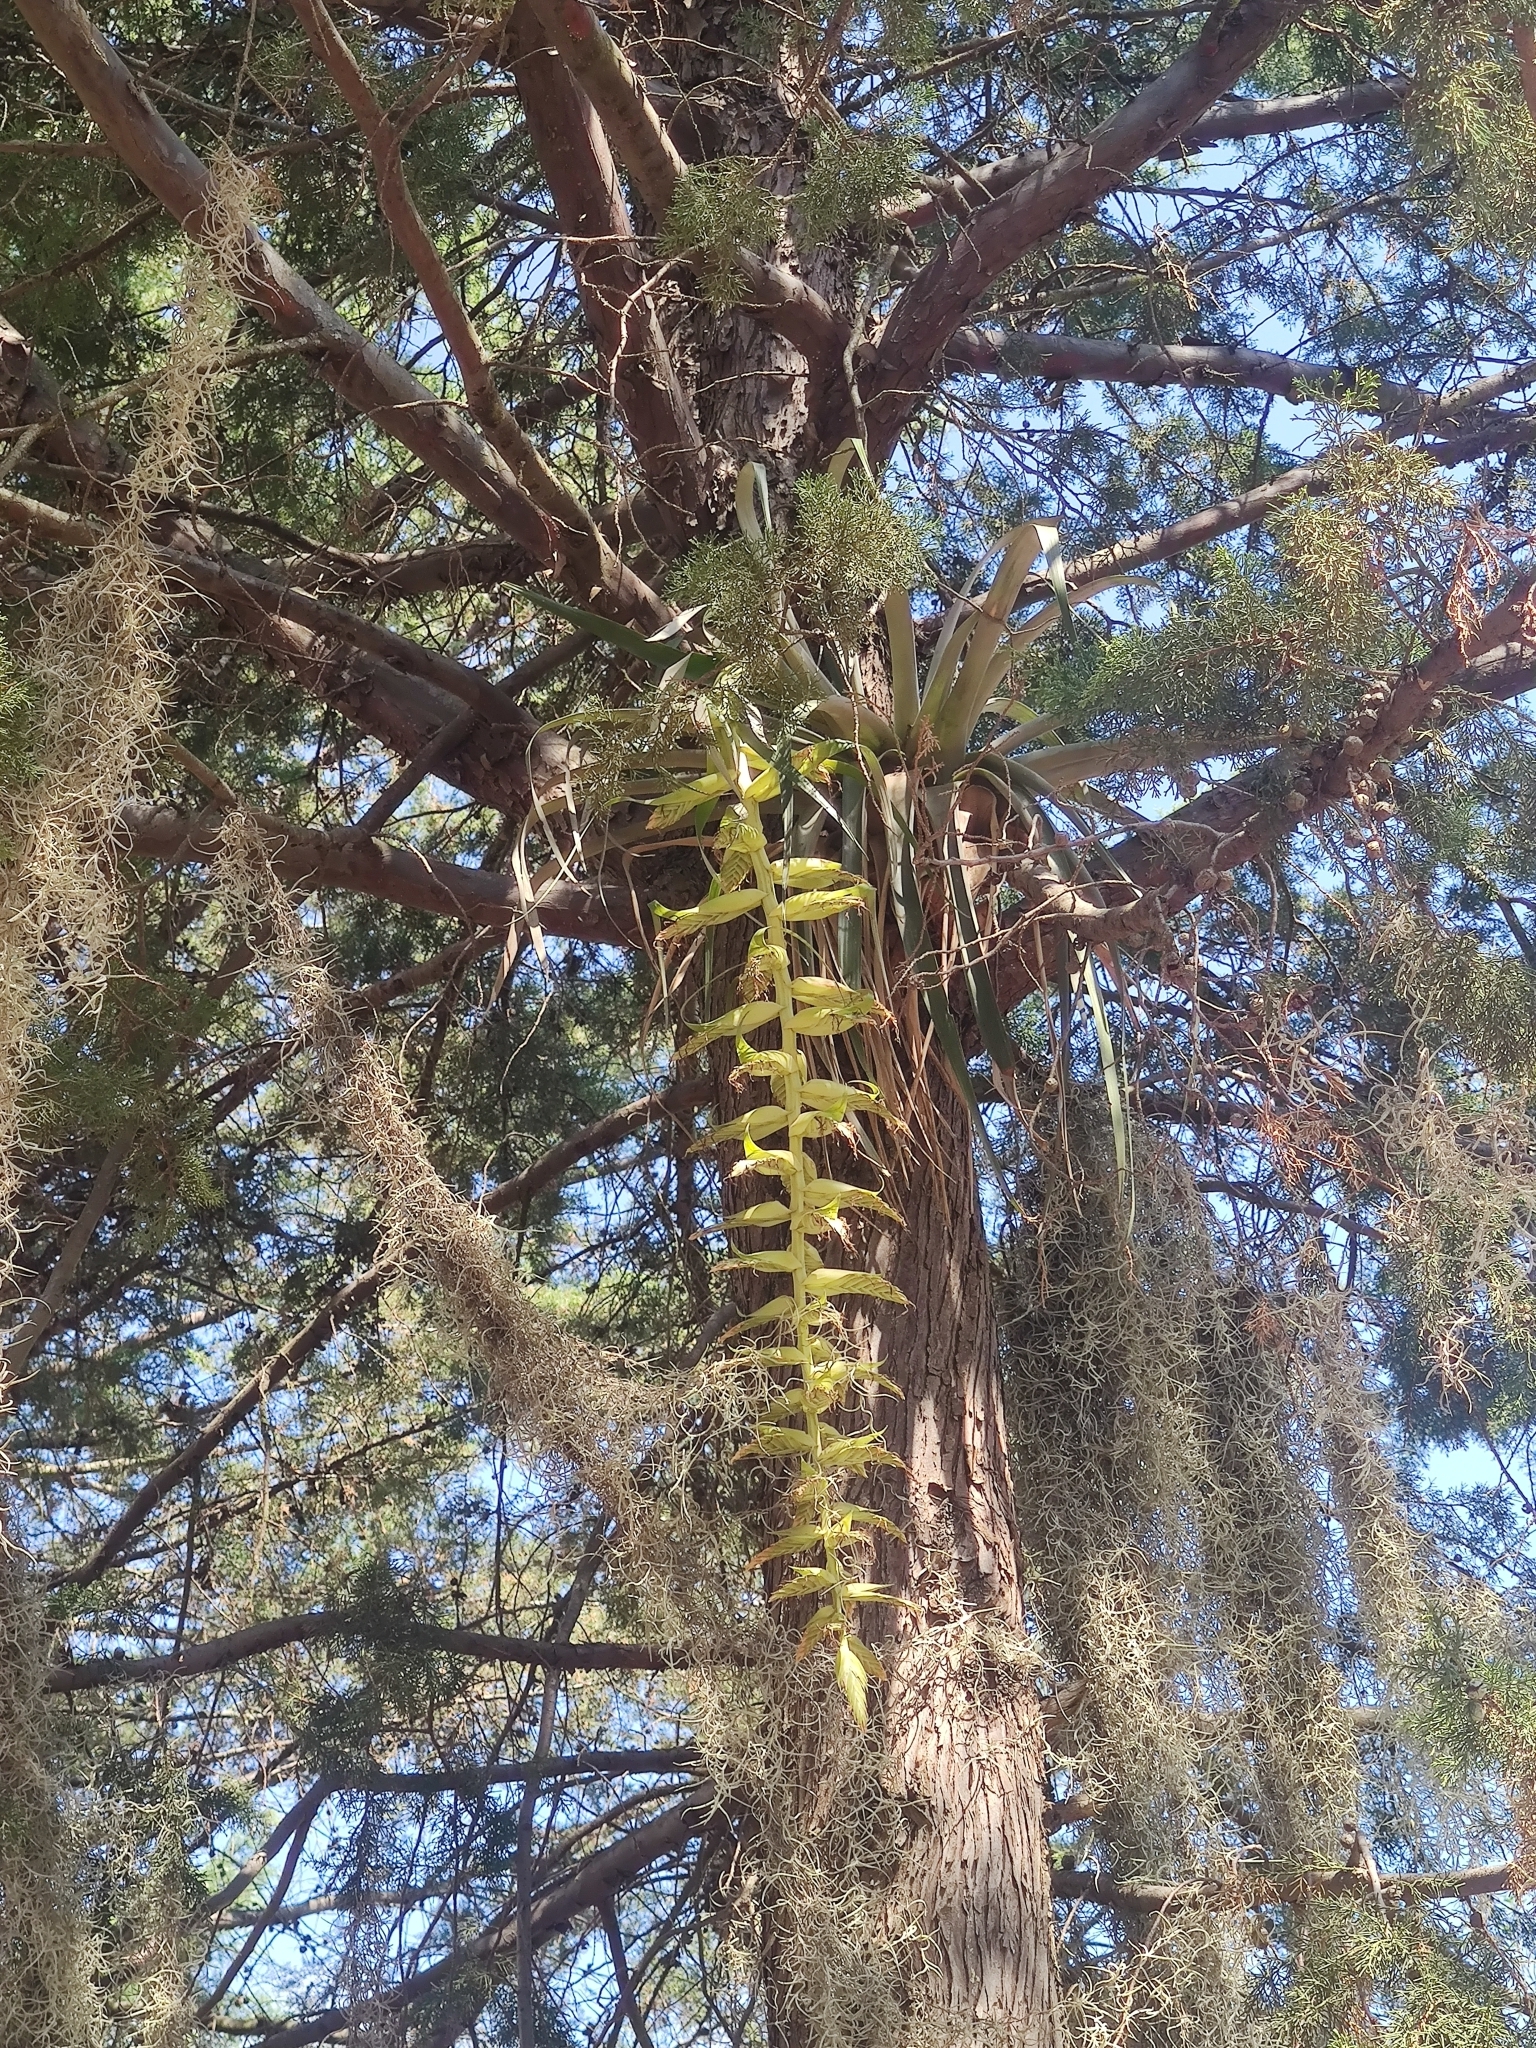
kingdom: Plantae
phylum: Tracheophyta
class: Liliopsida
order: Poales
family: Bromeliaceae
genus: Tillandsia
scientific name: Tillandsia prodigiosa
